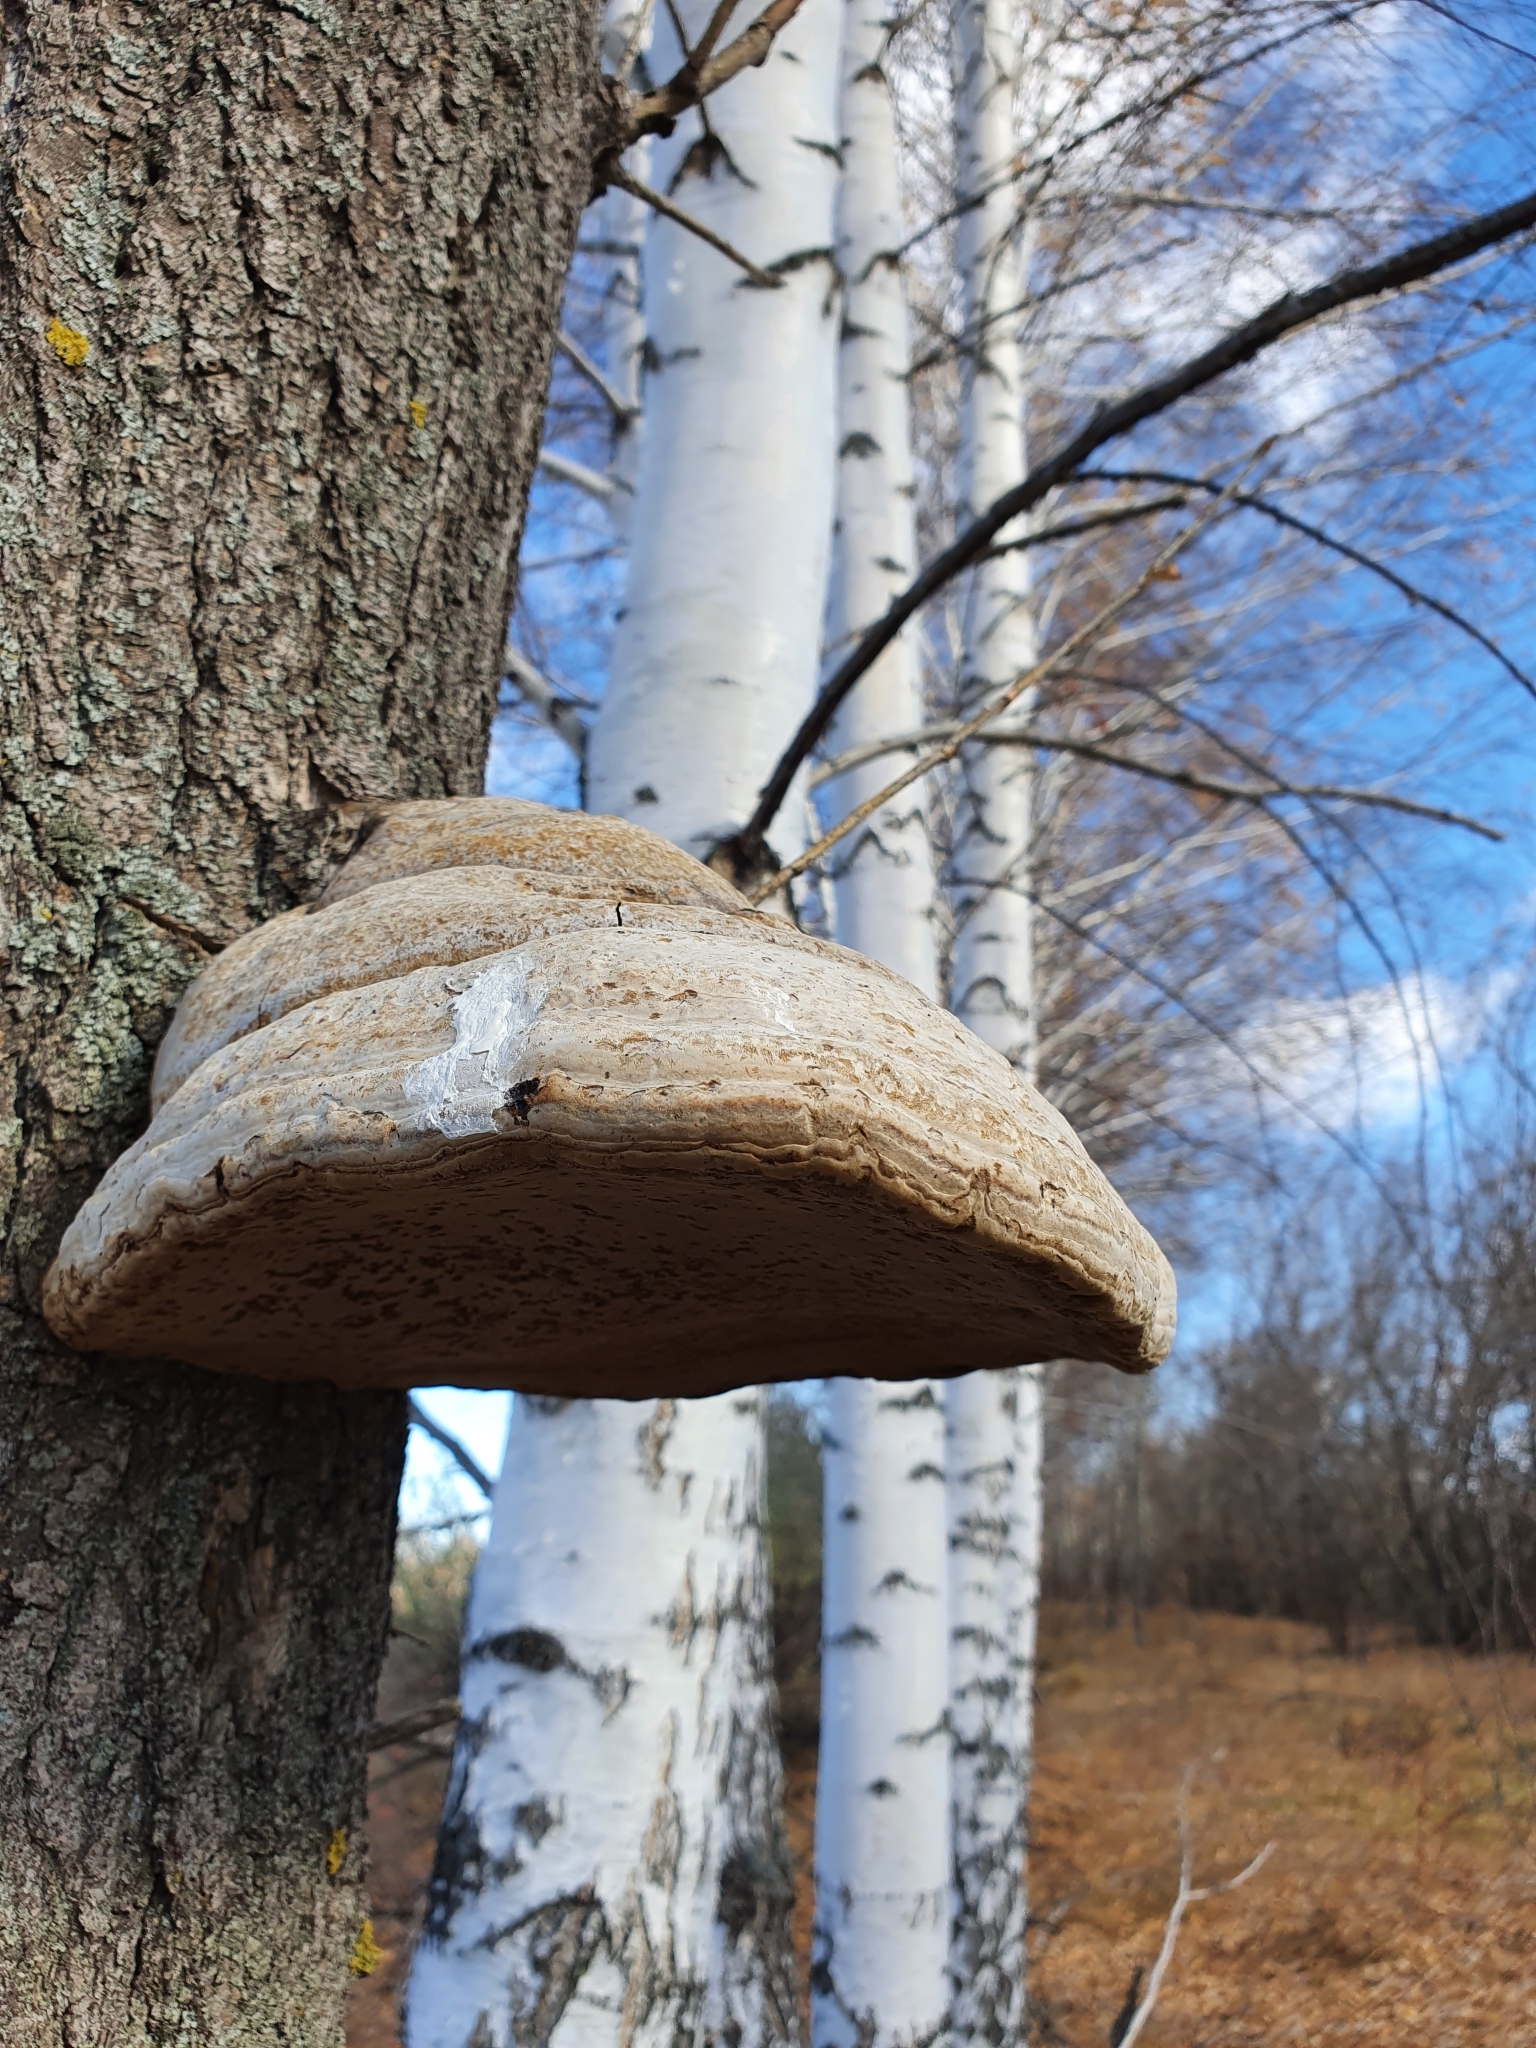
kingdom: Fungi
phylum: Basidiomycota
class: Agaricomycetes
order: Polyporales
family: Polyporaceae
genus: Fomes
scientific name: Fomes fomentarius
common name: Hoof fungus
